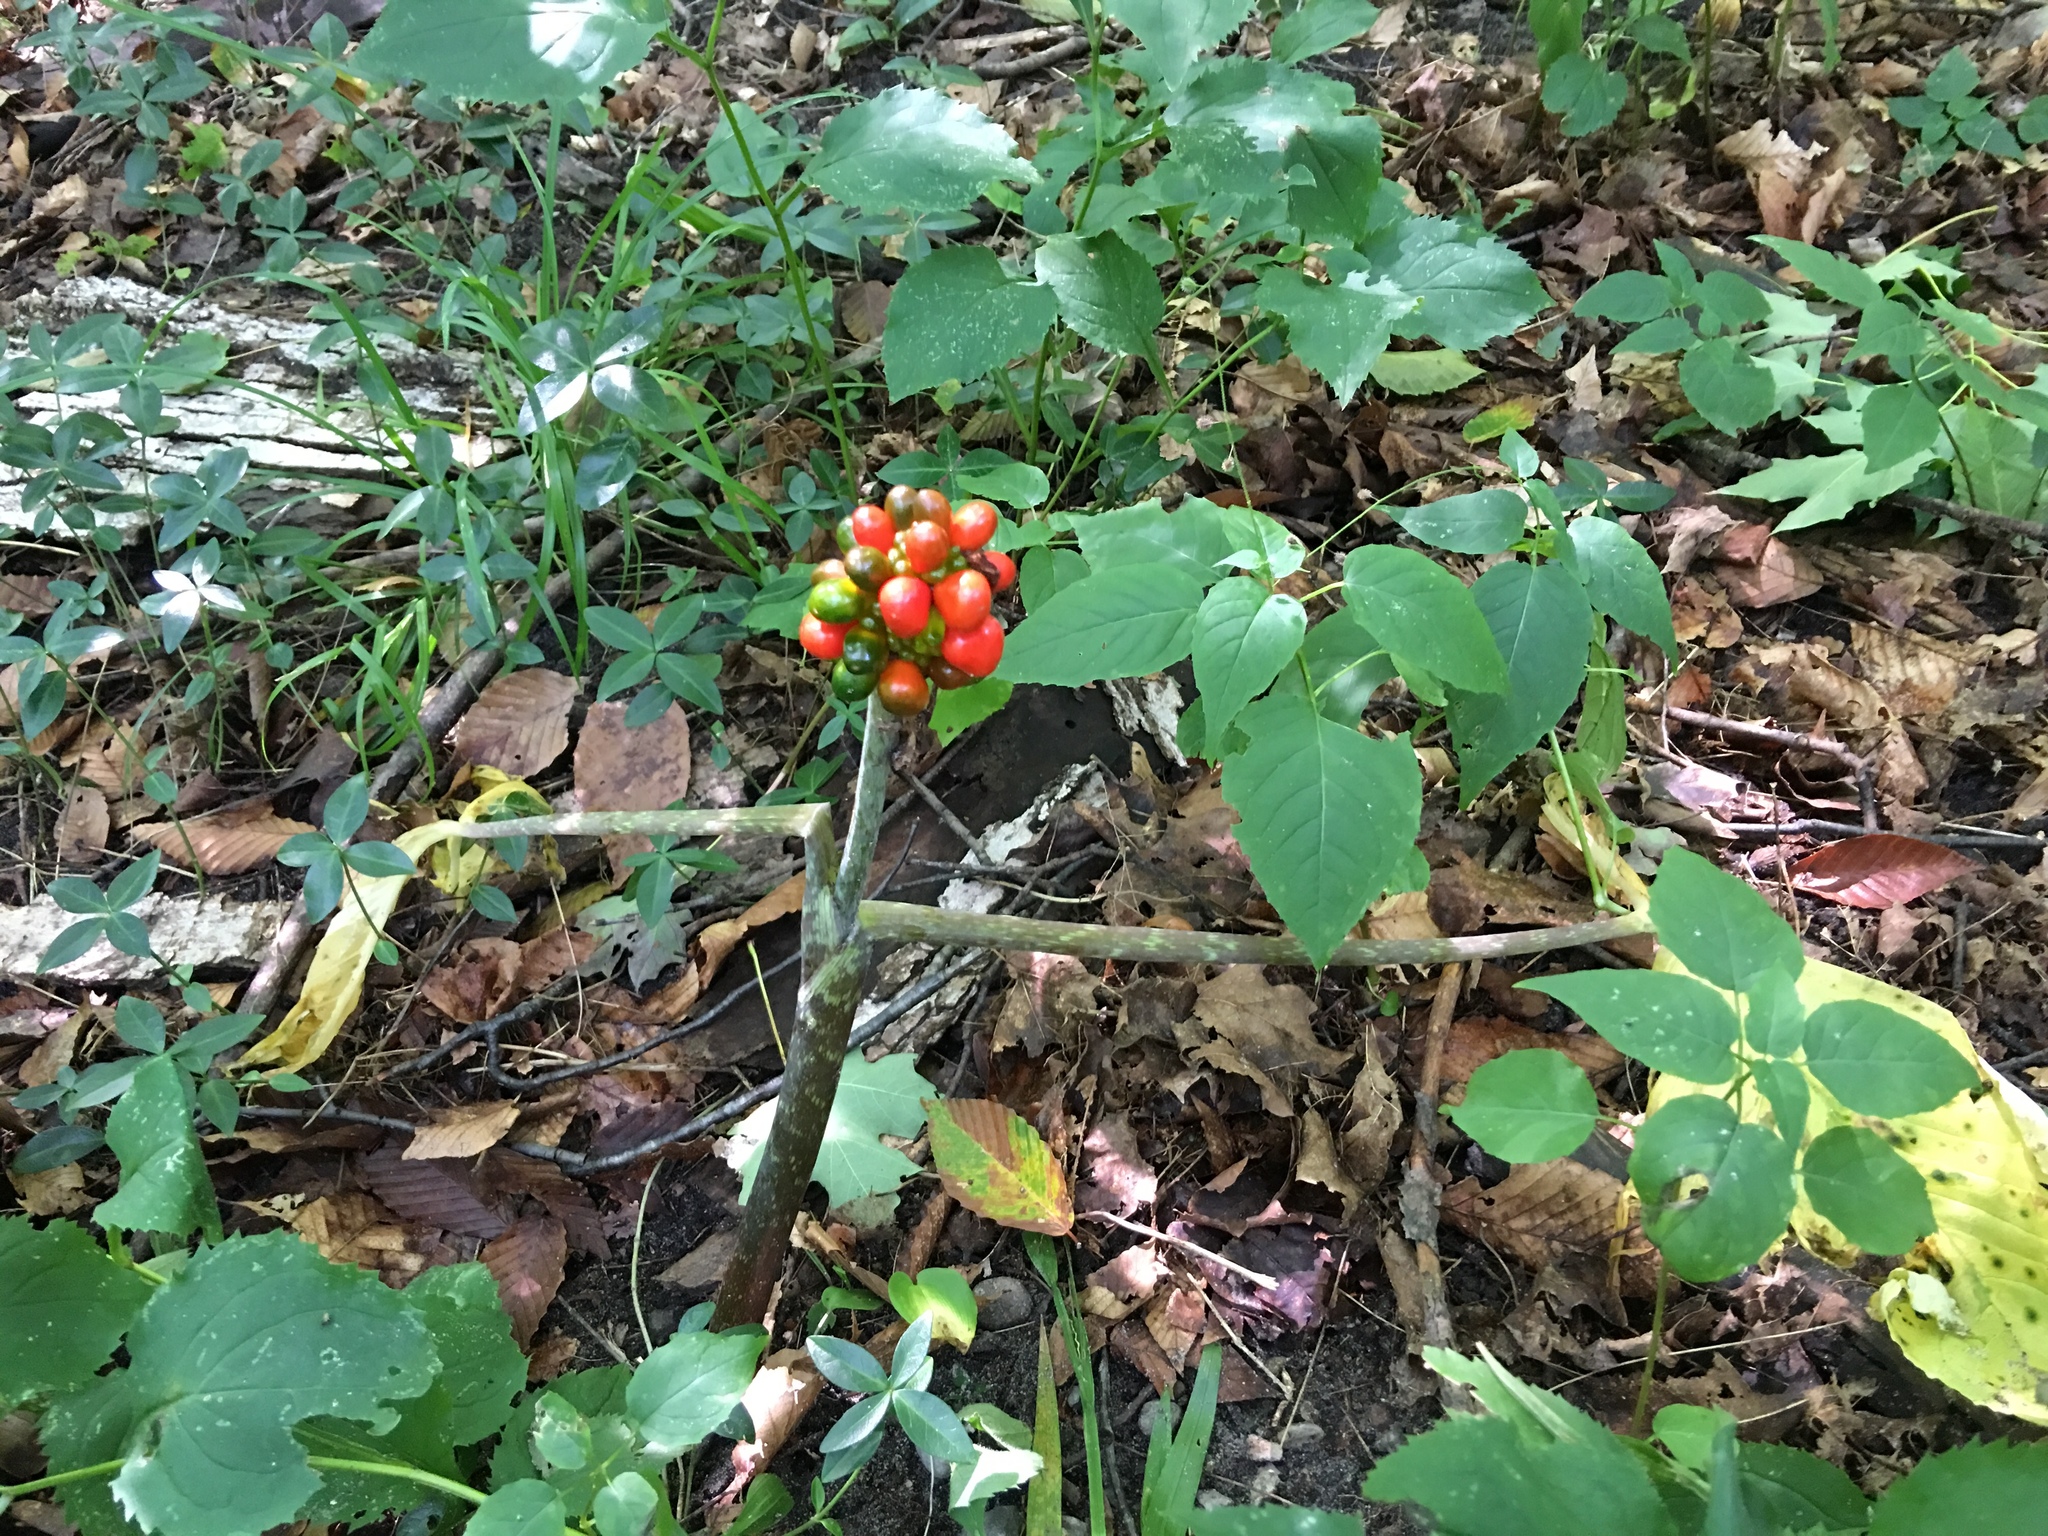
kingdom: Plantae
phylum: Tracheophyta
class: Liliopsida
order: Alismatales
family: Araceae
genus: Arisaema
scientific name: Arisaema triphyllum
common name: Jack-in-the-pulpit
